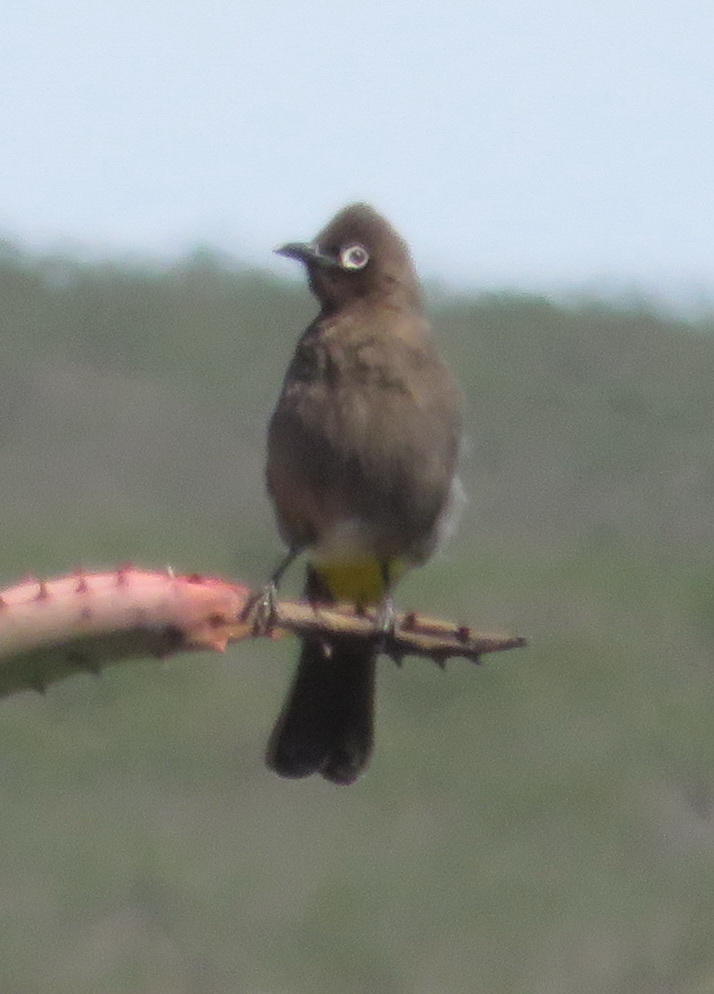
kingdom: Animalia
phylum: Chordata
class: Aves
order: Passeriformes
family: Pycnonotidae
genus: Pycnonotus
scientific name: Pycnonotus capensis
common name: Cape bulbul
